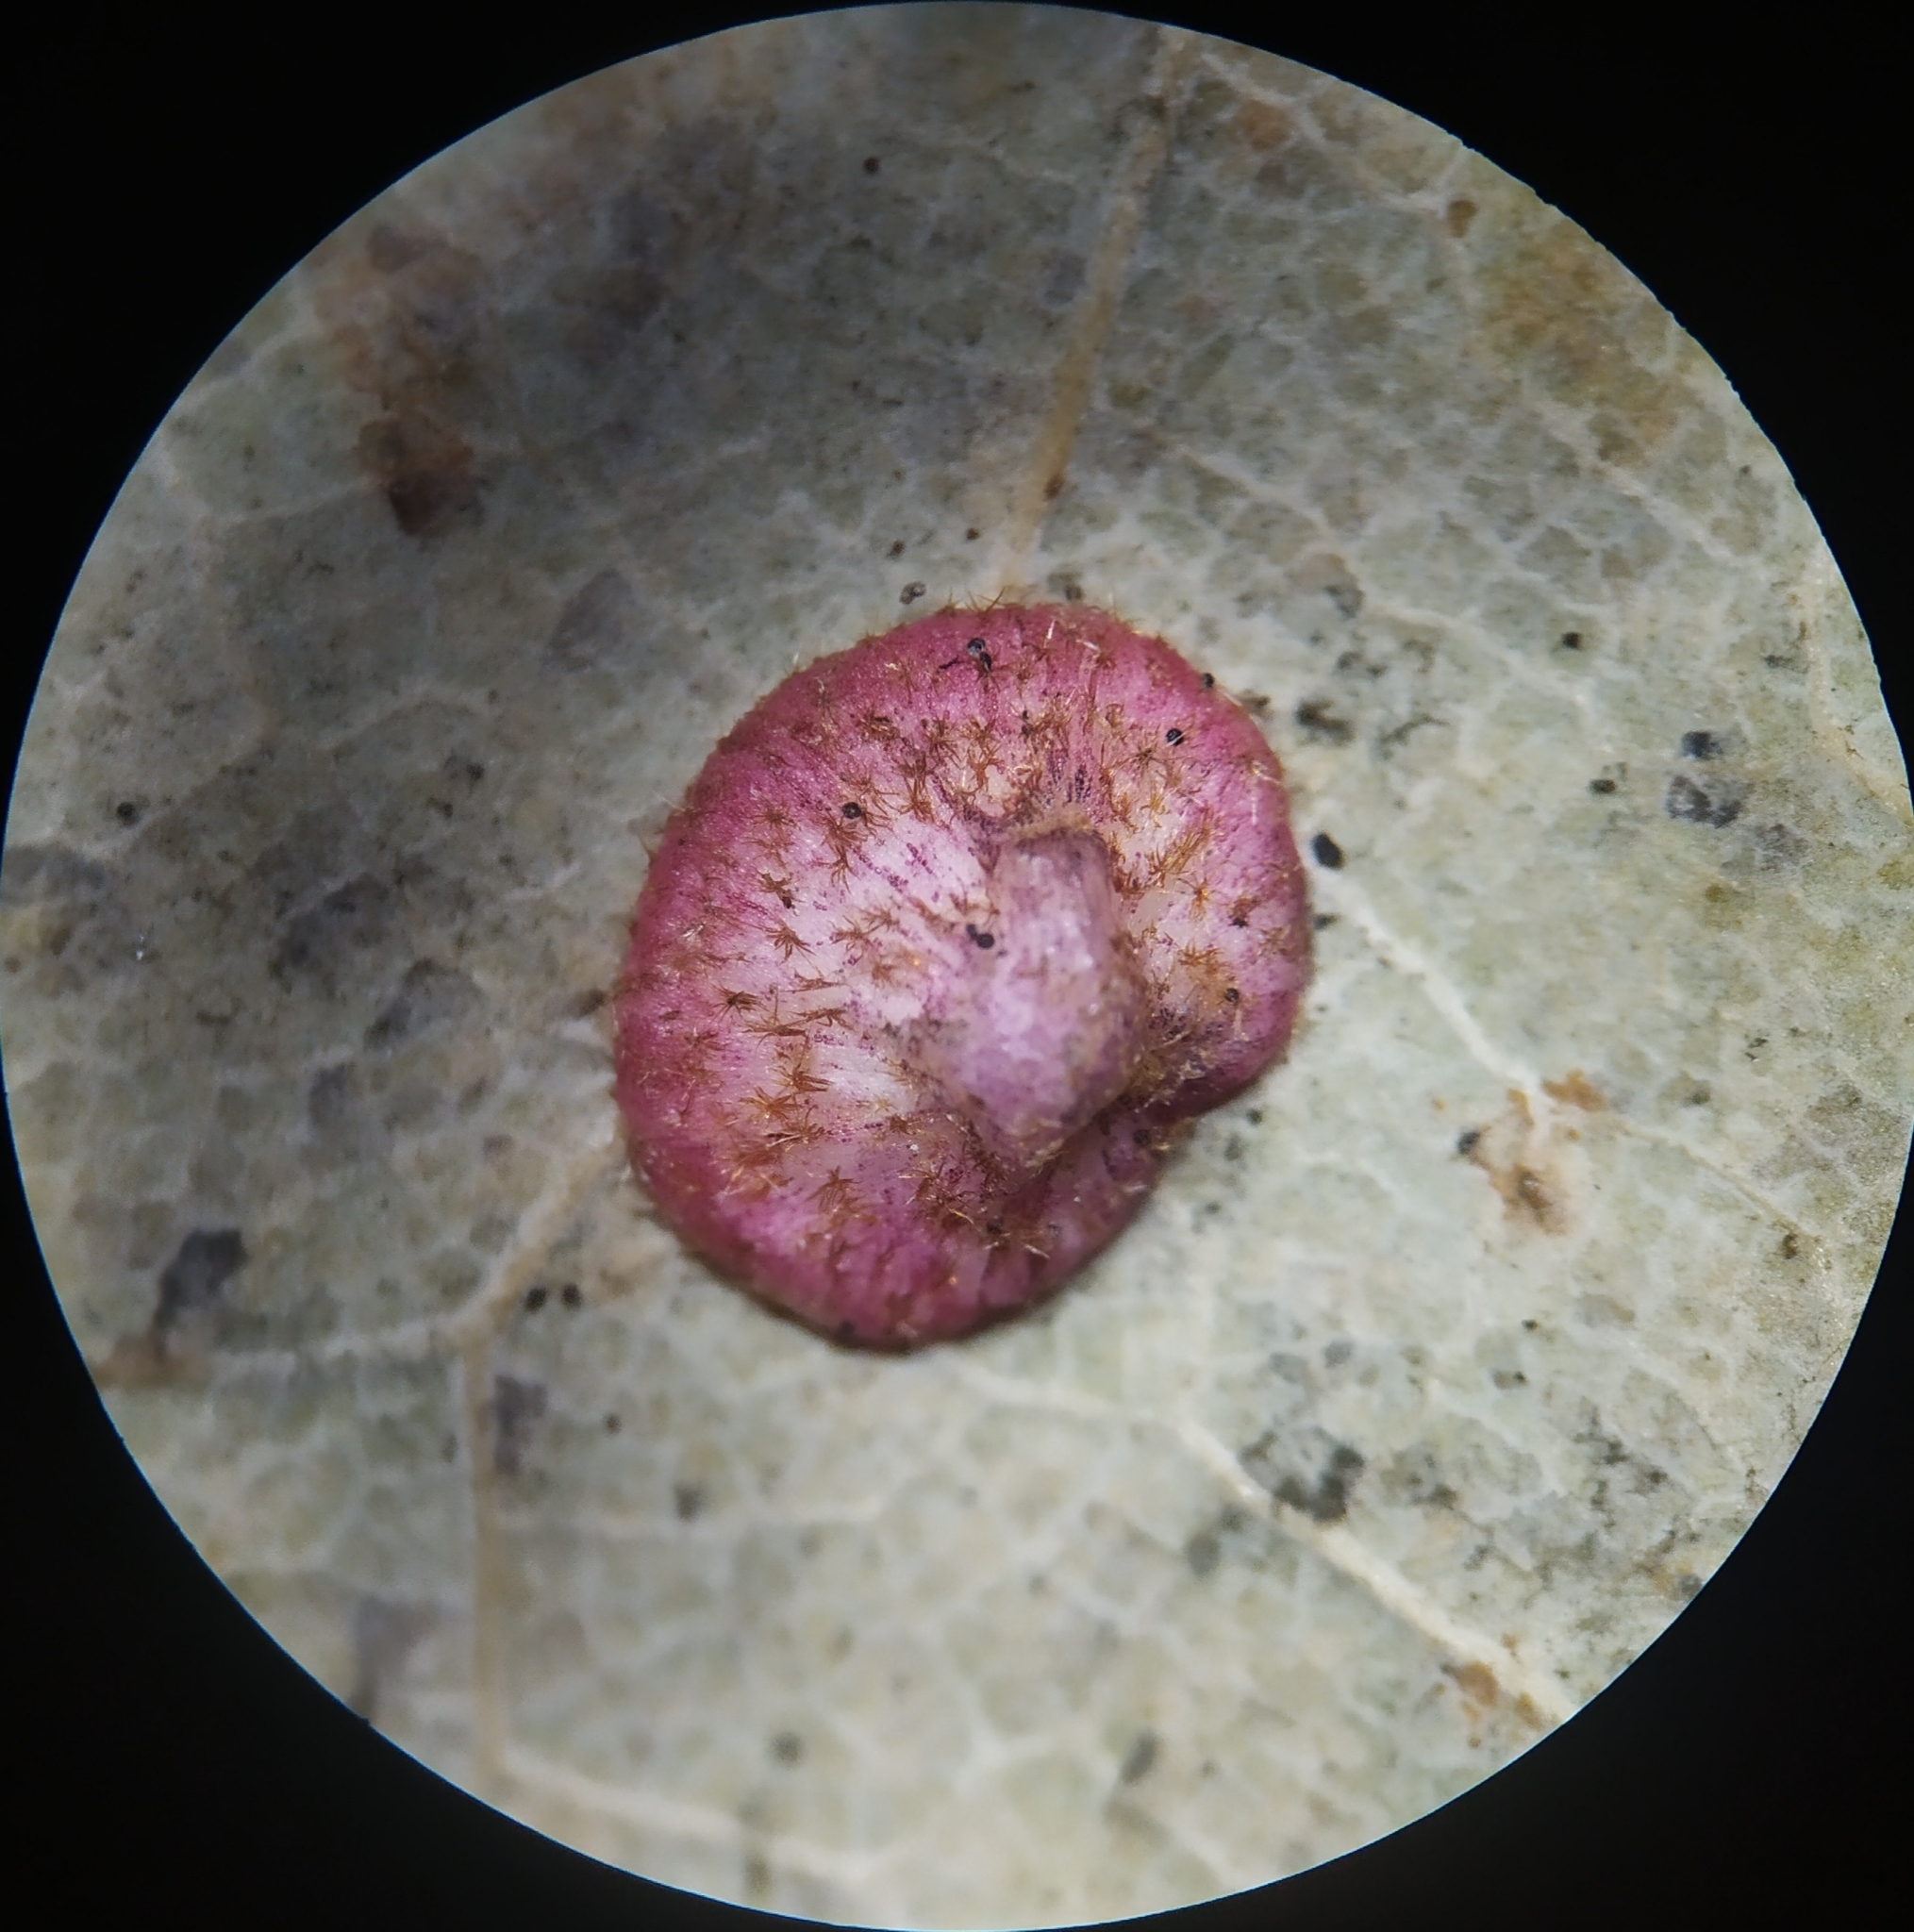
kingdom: Animalia
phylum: Arthropoda
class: Insecta
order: Hymenoptera
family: Cynipidae
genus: Neuroterus
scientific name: Neuroterus quercusbaccarum
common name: Common spangle gall
